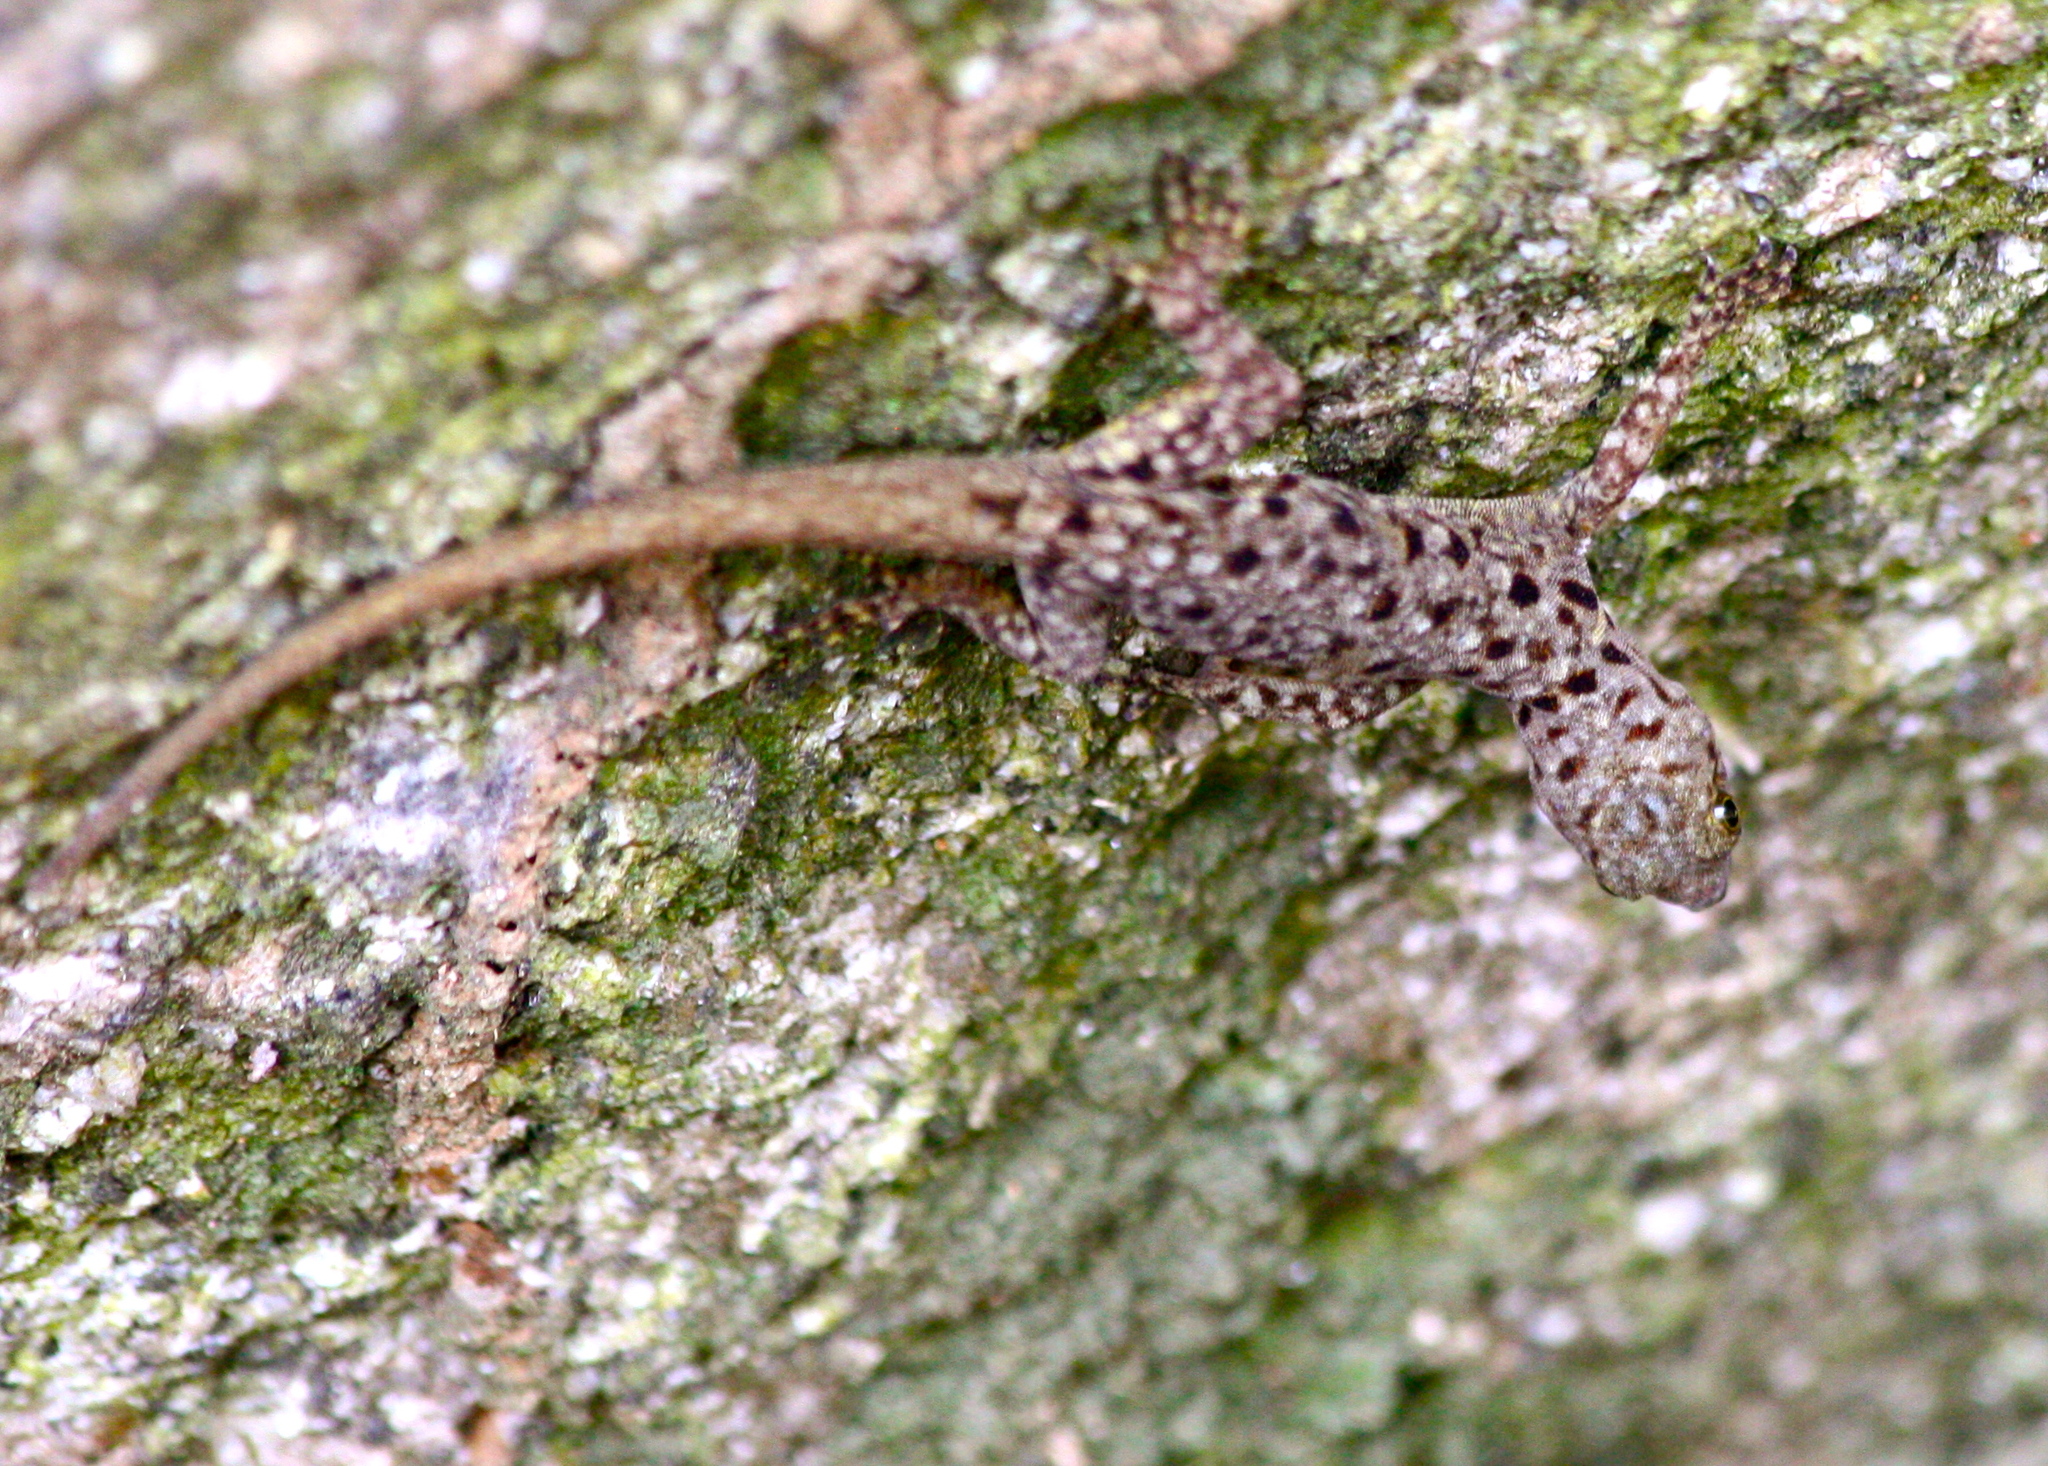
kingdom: Animalia
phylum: Chordata
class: Squamata
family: Sphaerodactylidae
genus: Gonatodes
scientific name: Gonatodes albogularis
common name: Yellow-headed gecko
